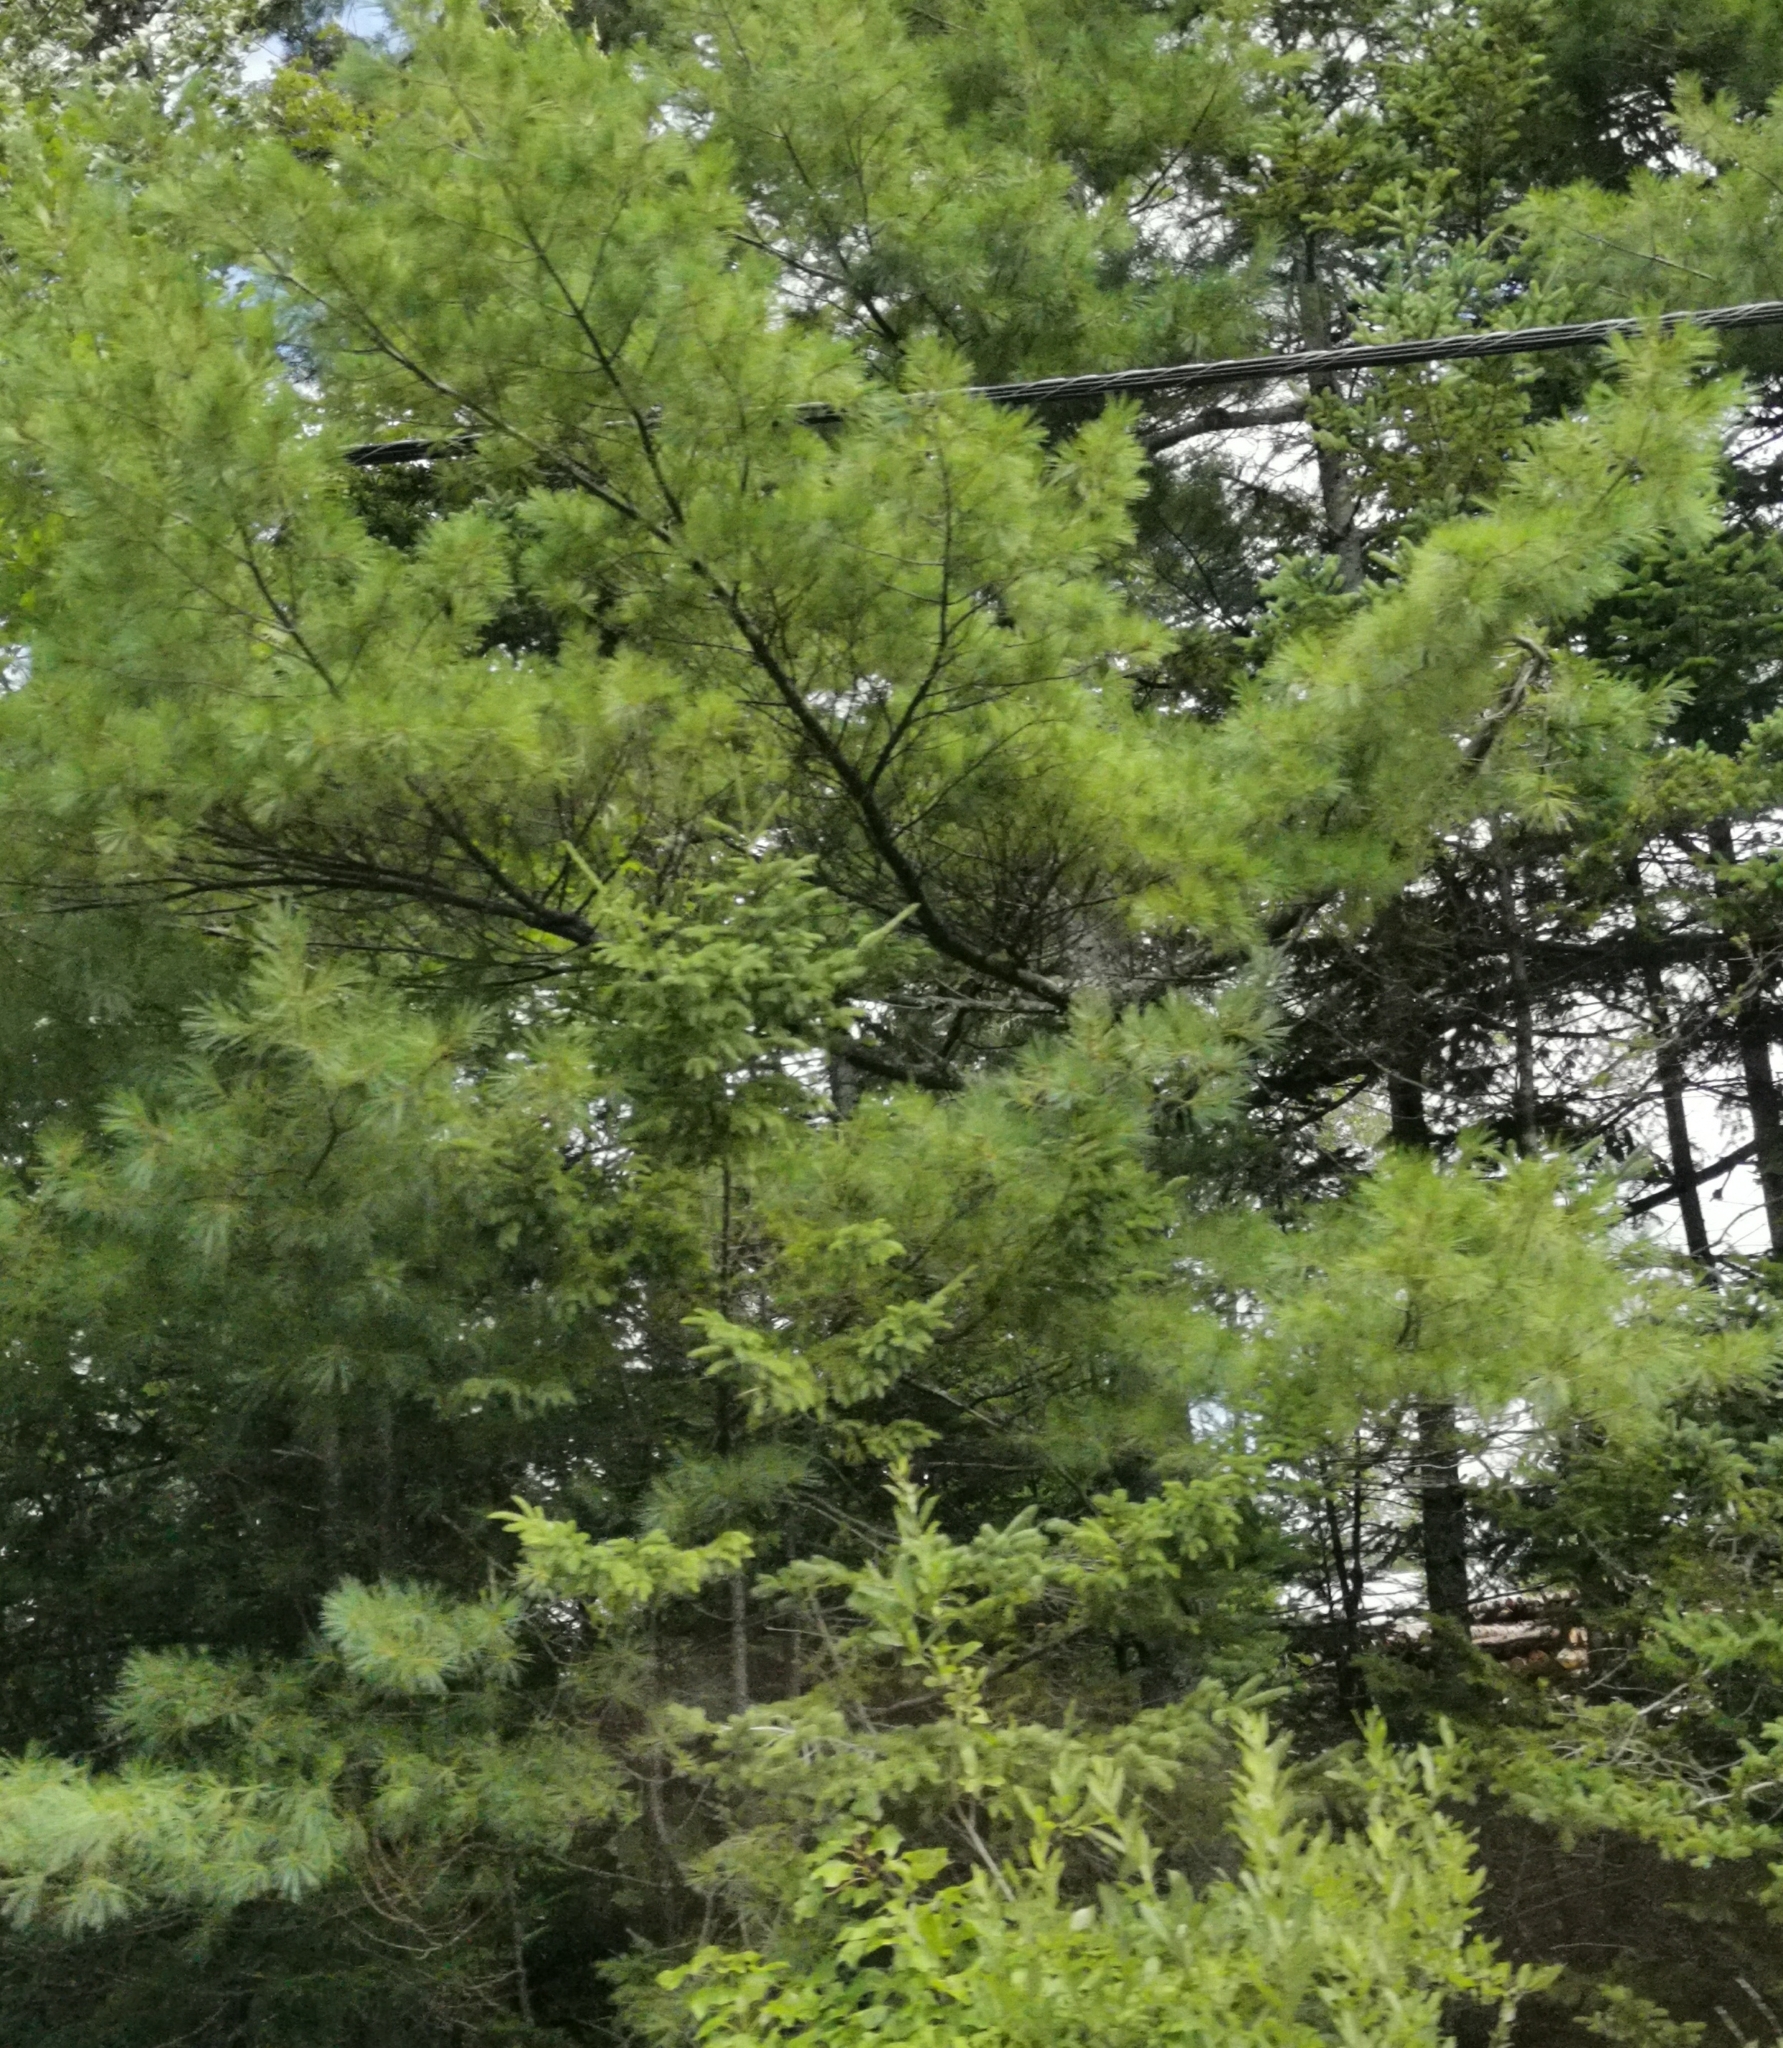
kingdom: Plantae
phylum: Tracheophyta
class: Pinopsida
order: Pinales
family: Pinaceae
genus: Pinus
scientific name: Pinus strobus
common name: Weymouth pine
